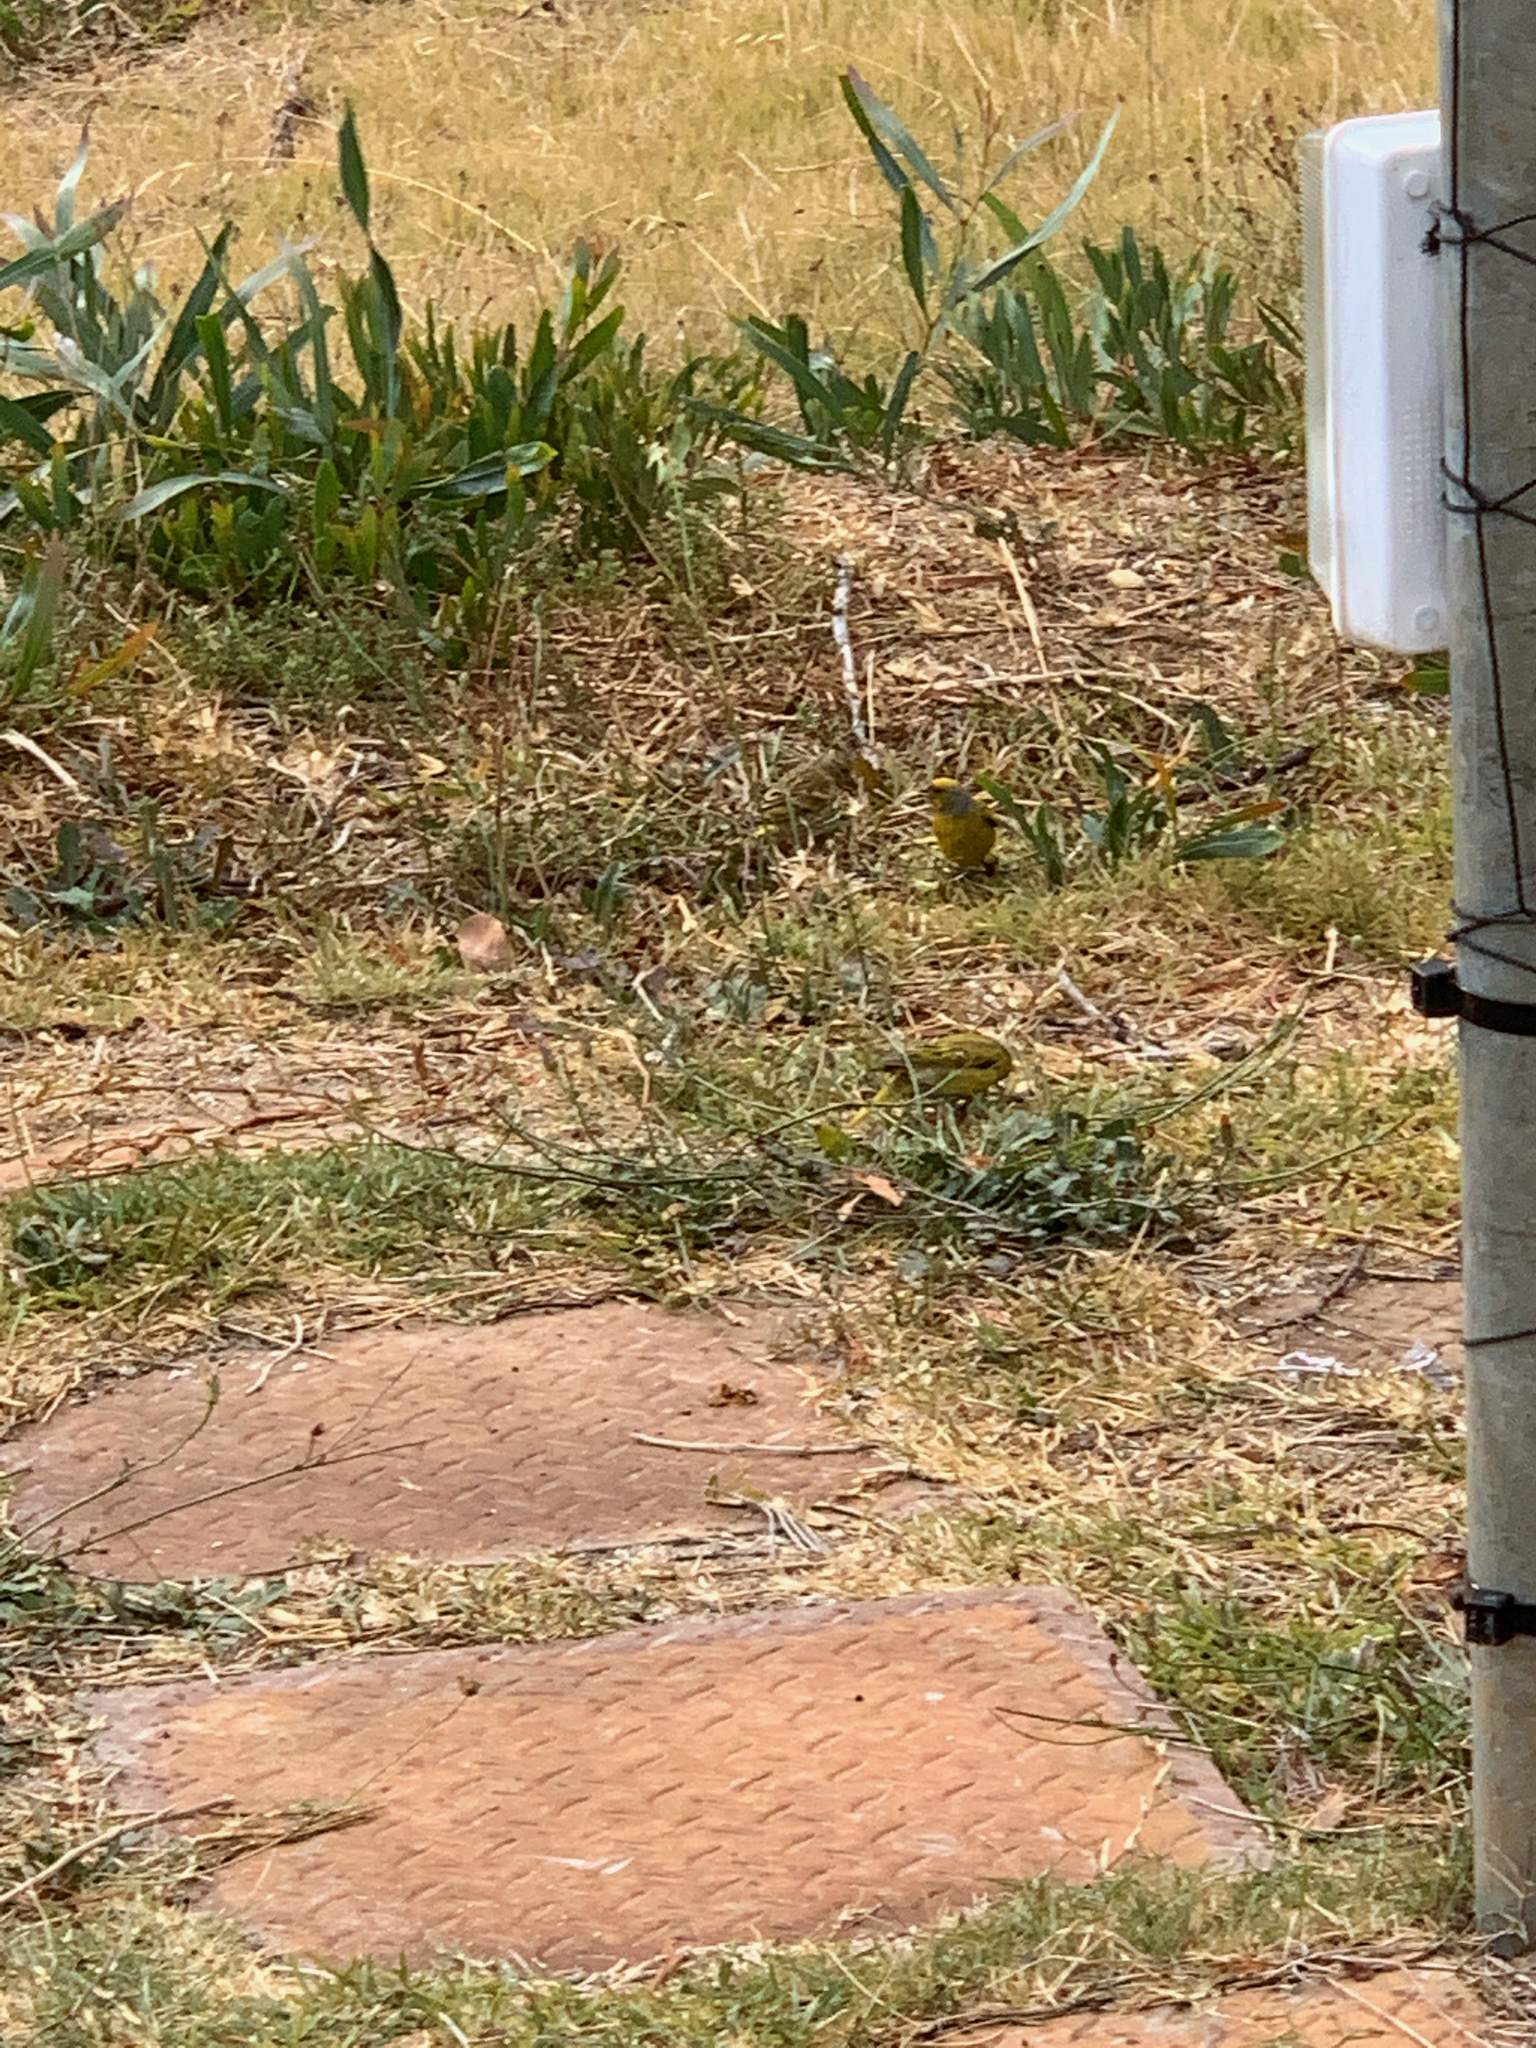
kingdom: Animalia
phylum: Chordata
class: Aves
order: Passeriformes
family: Fringillidae
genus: Serinus
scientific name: Serinus canicollis
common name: Cape canary
